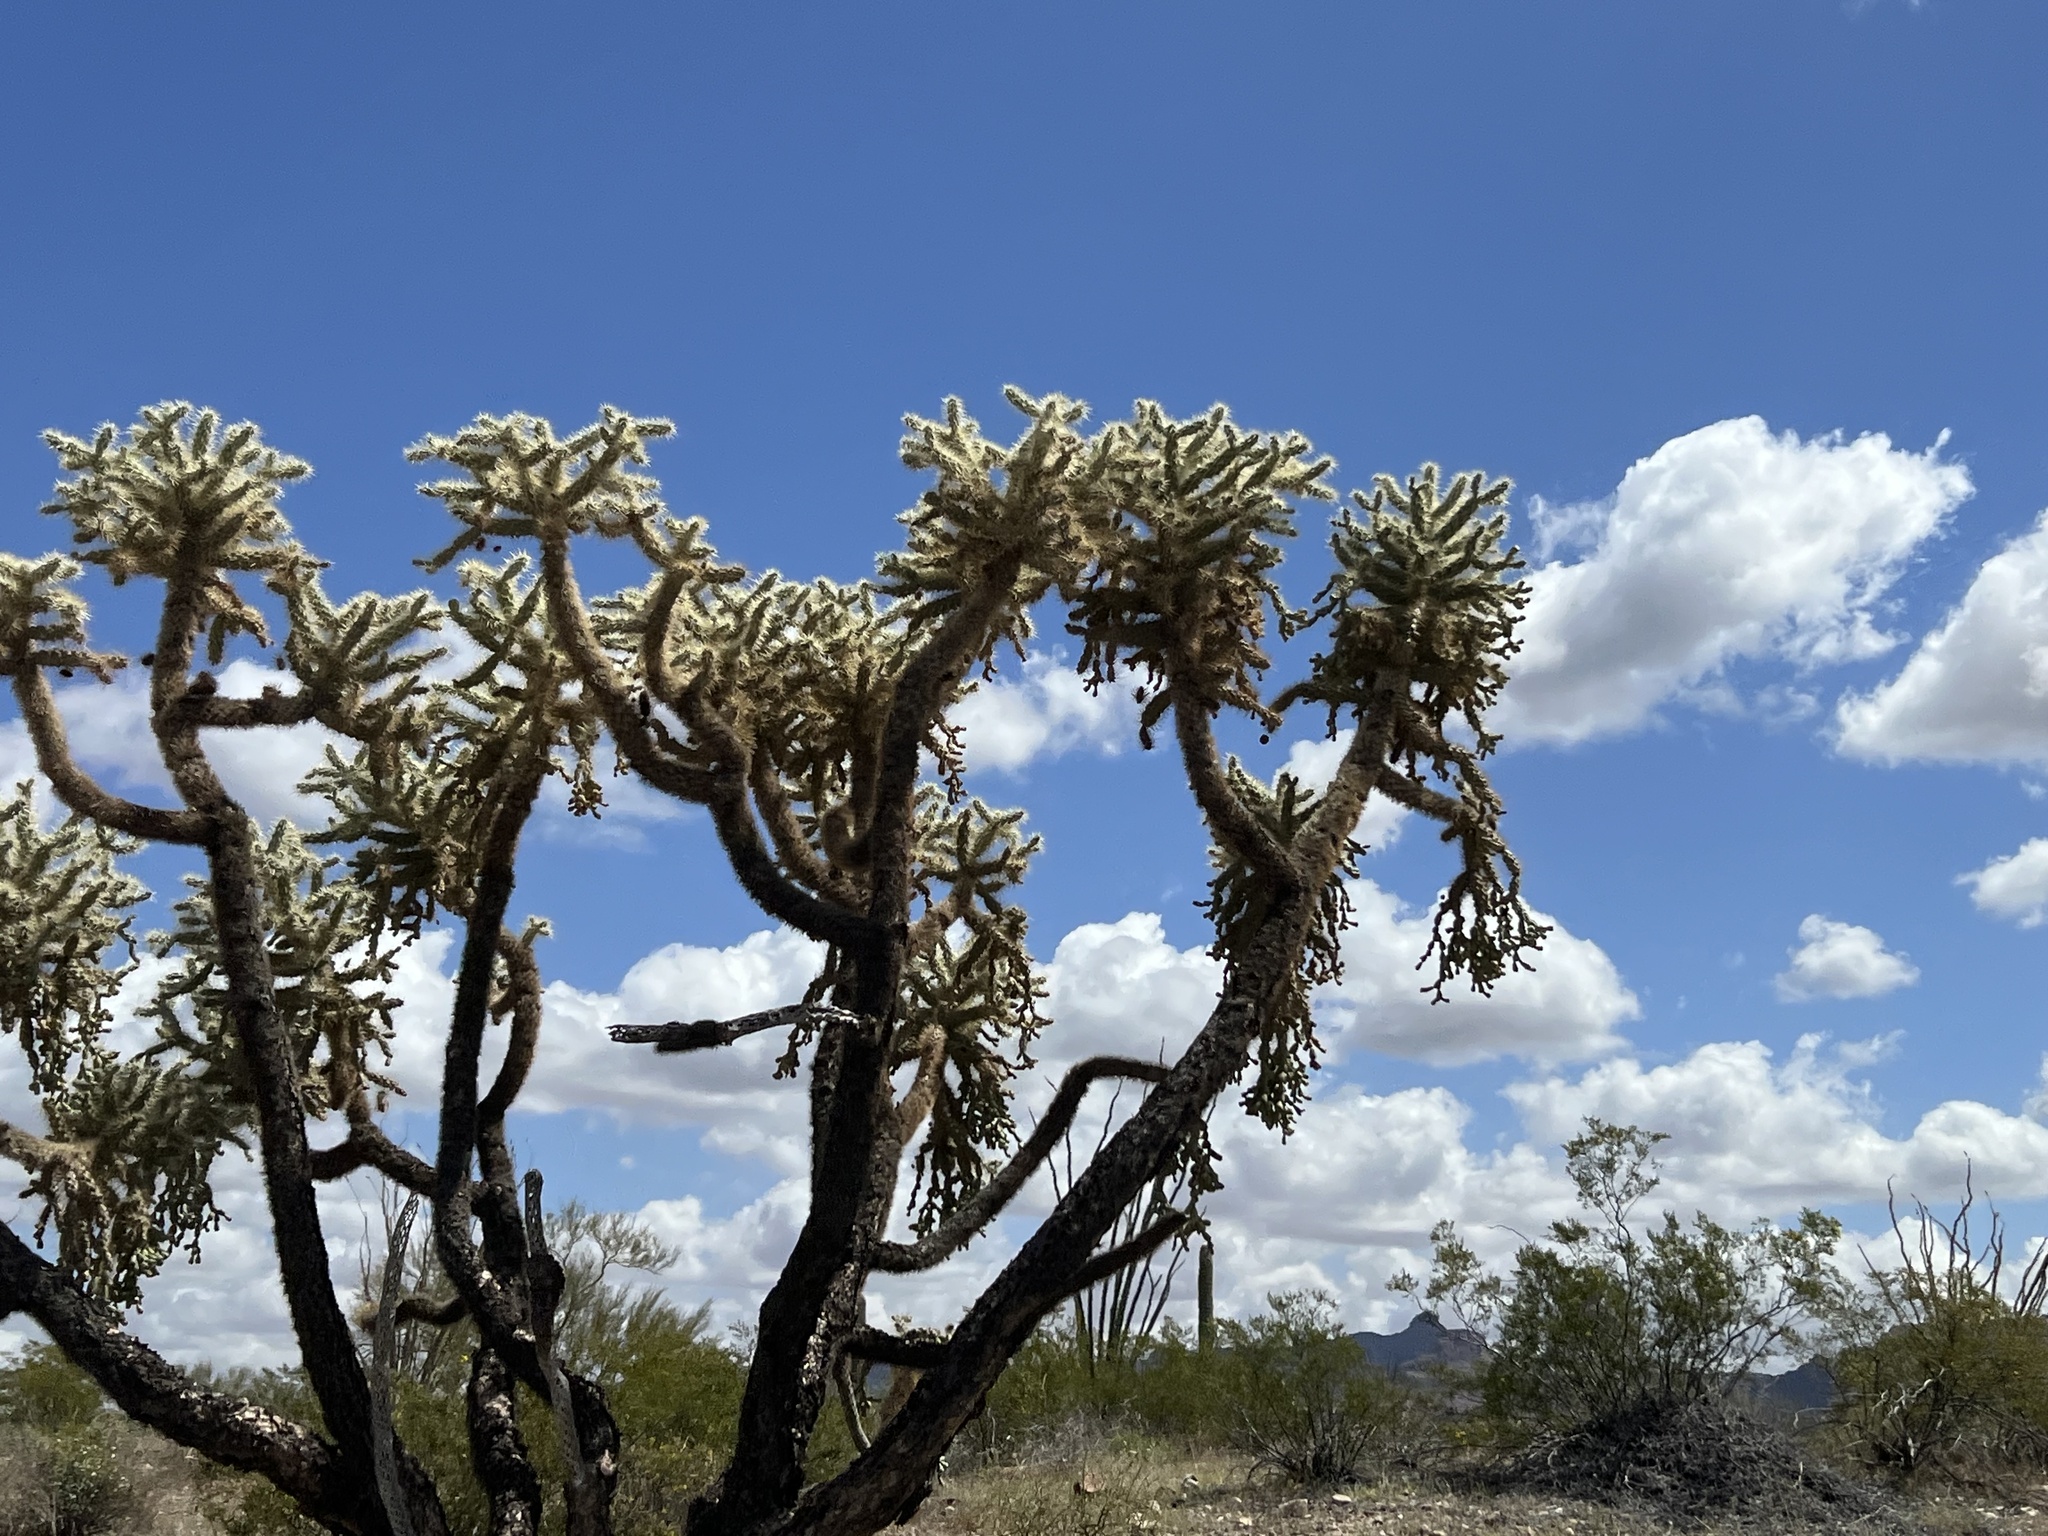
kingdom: Plantae
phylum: Tracheophyta
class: Magnoliopsida
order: Caryophyllales
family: Cactaceae
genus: Cylindropuntia
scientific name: Cylindropuntia fulgida
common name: Jumping cholla
